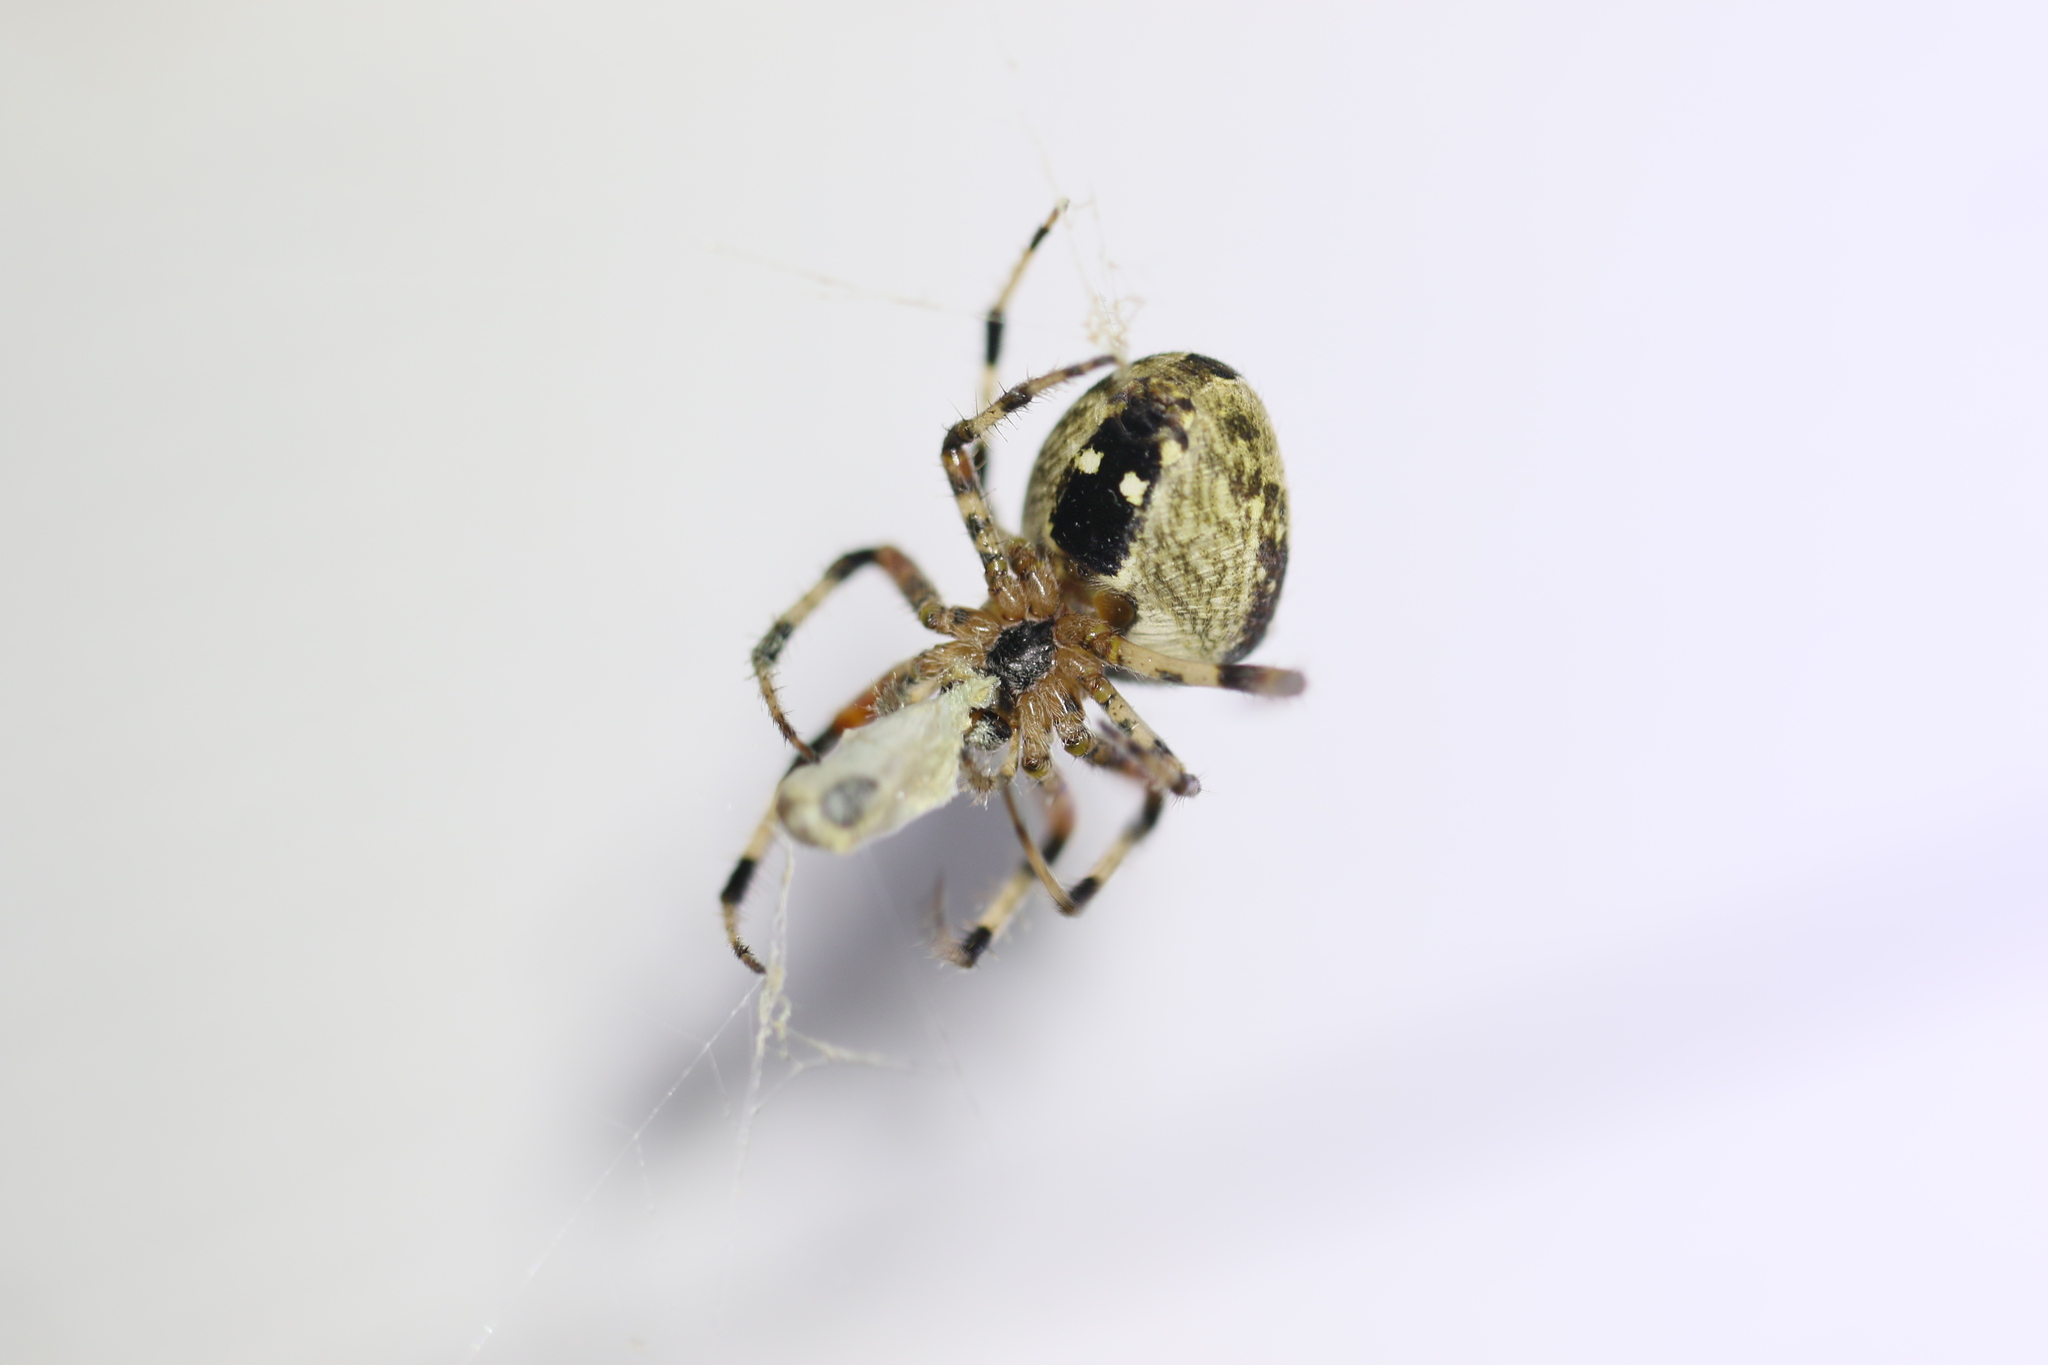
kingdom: Animalia
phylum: Arthropoda
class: Arachnida
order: Araneae
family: Araneidae
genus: Araneus
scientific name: Araneus nordmanni
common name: Nordmann's orbweaver
